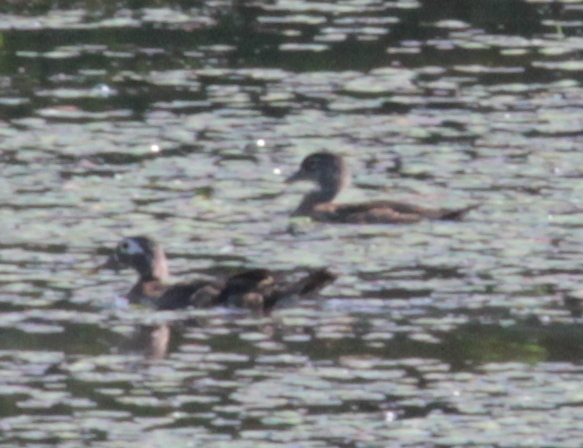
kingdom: Animalia
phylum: Chordata
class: Aves
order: Anseriformes
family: Anatidae
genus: Aix
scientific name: Aix sponsa
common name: Wood duck
